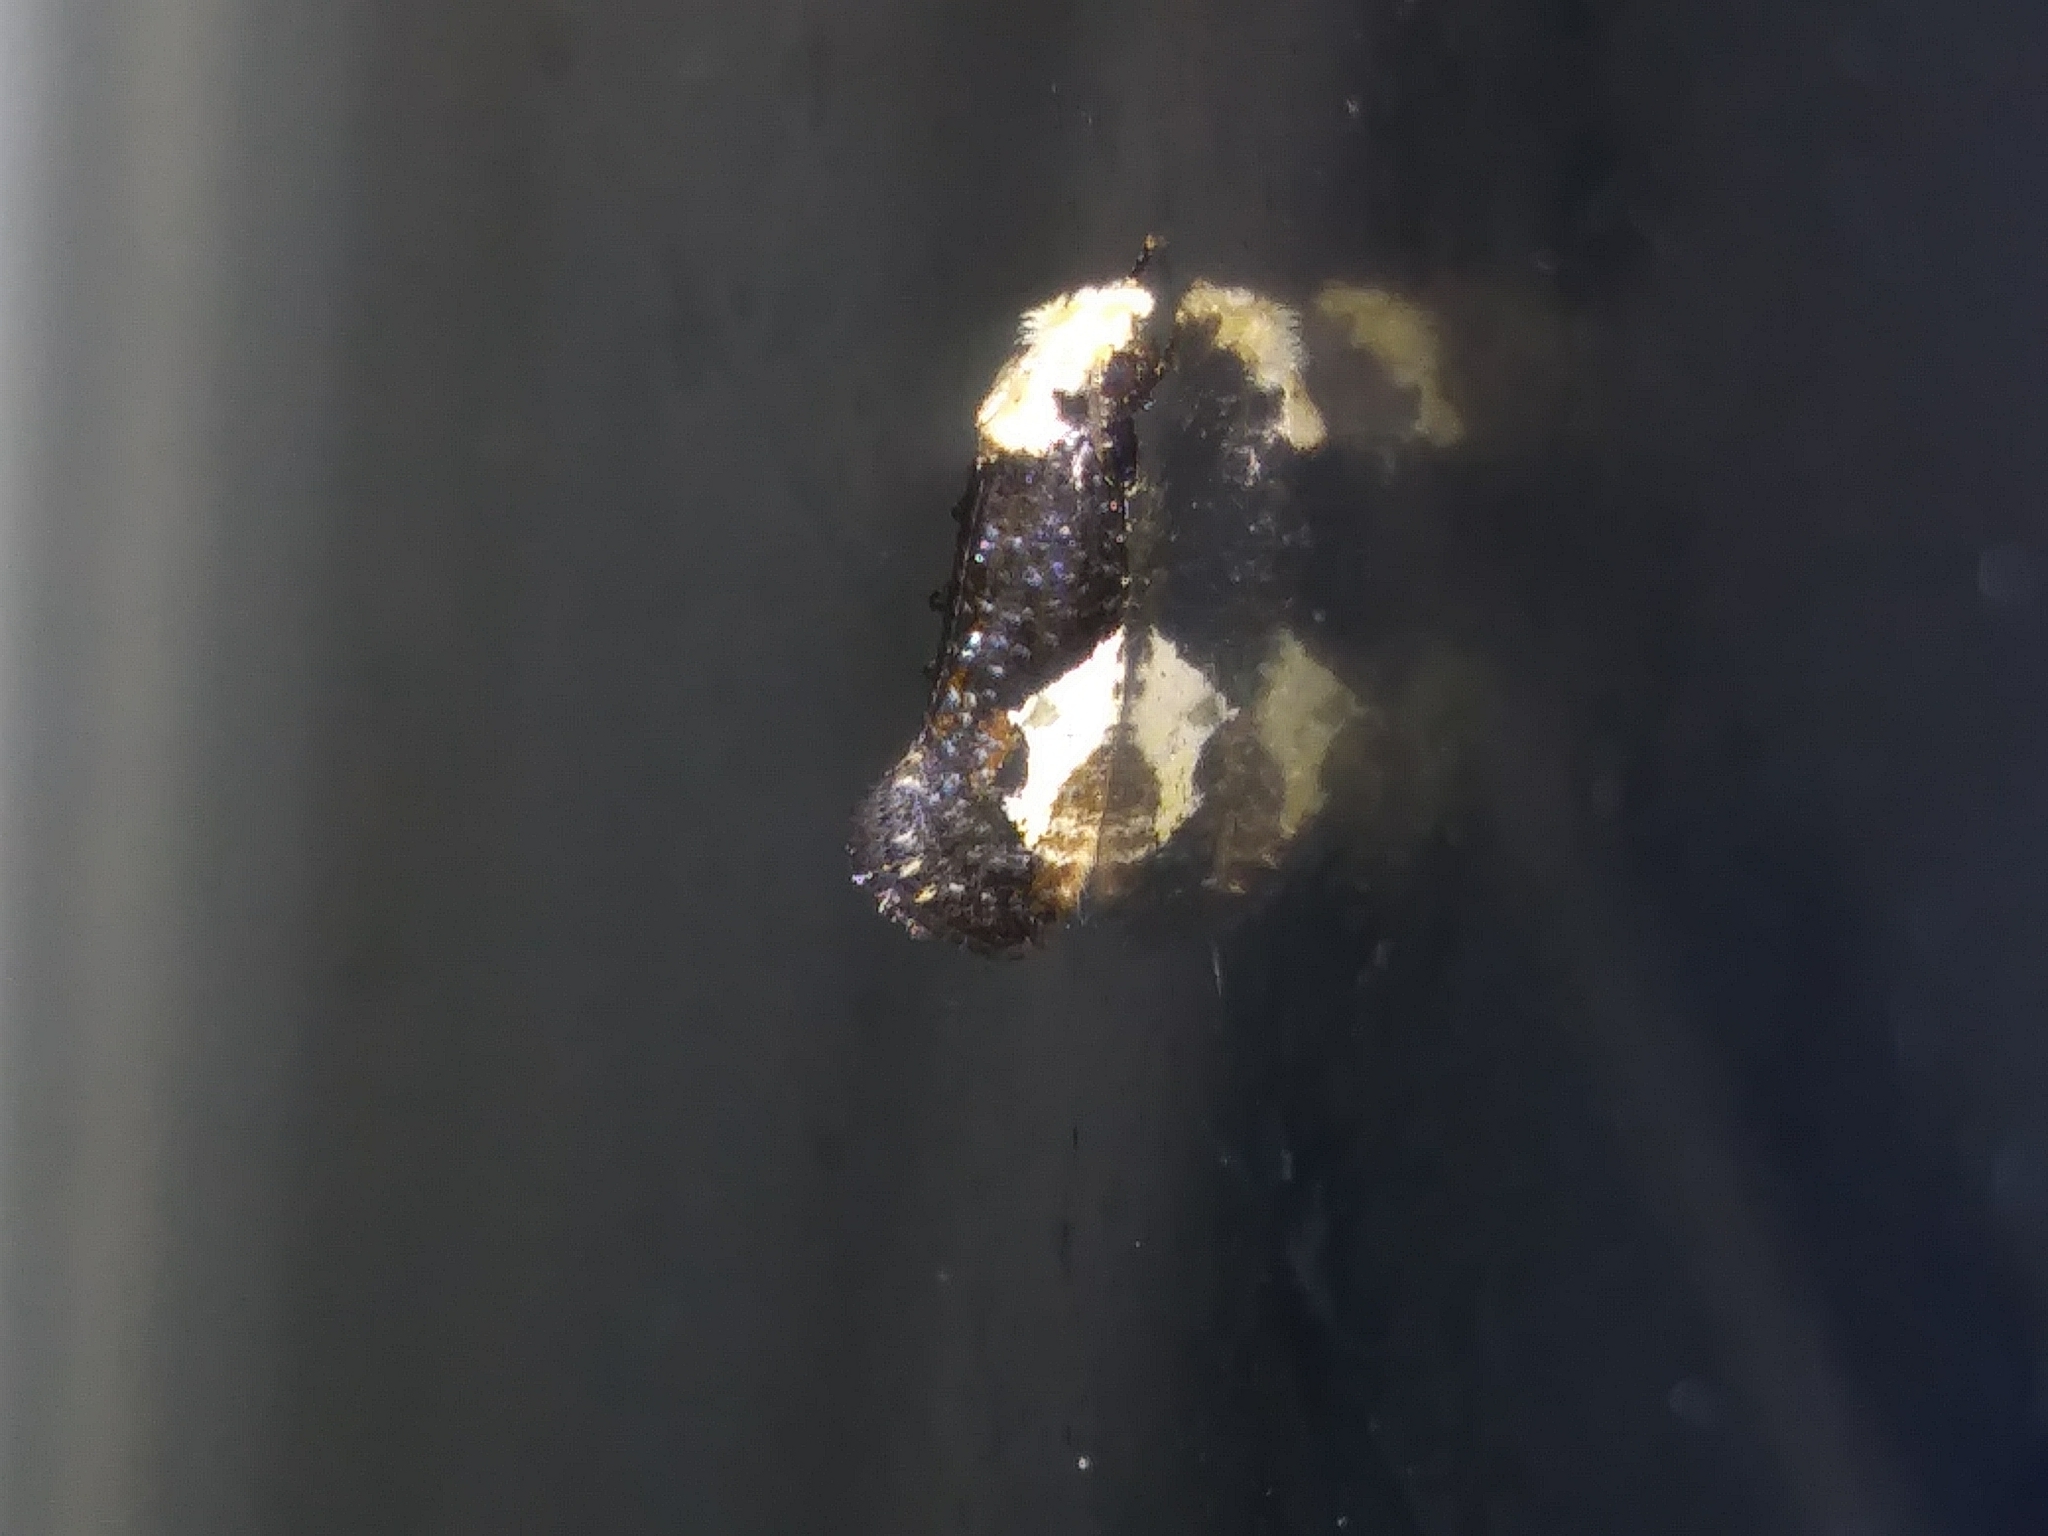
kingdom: Animalia
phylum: Arthropoda
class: Insecta
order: Lepidoptera
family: Tineidae
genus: Monopis
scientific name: Monopis longella
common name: Pavlovski's monopis moth
